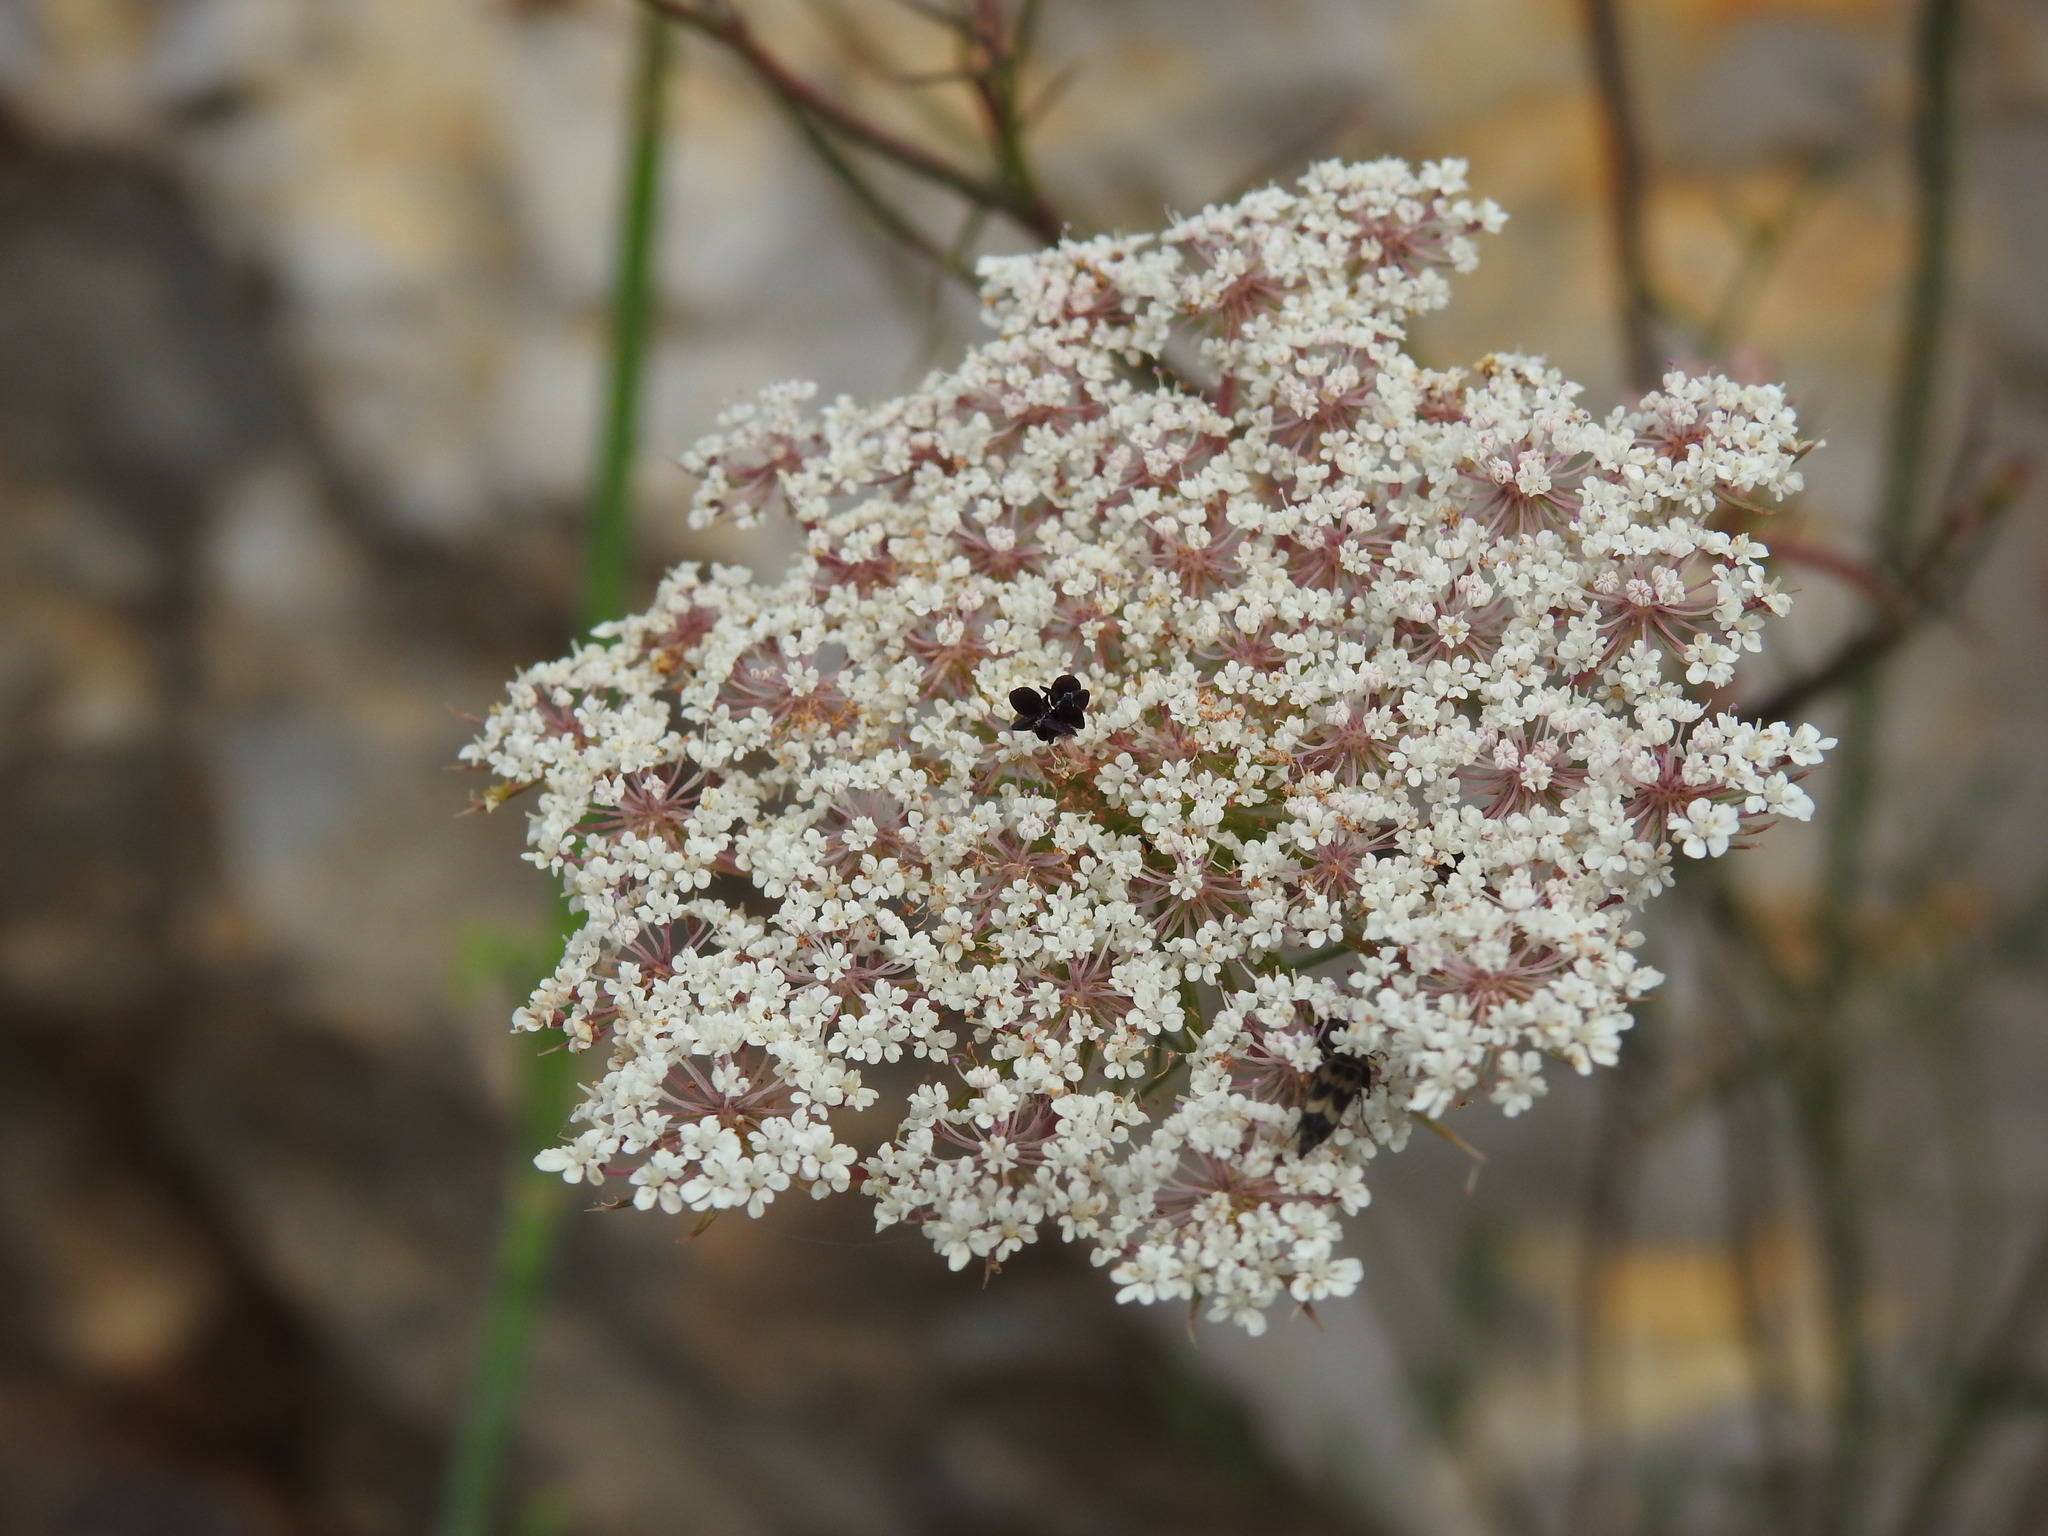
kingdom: Plantae
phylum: Tracheophyta
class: Magnoliopsida
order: Apiales
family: Apiaceae
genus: Daucus
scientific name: Daucus carota
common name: Wild carrot
